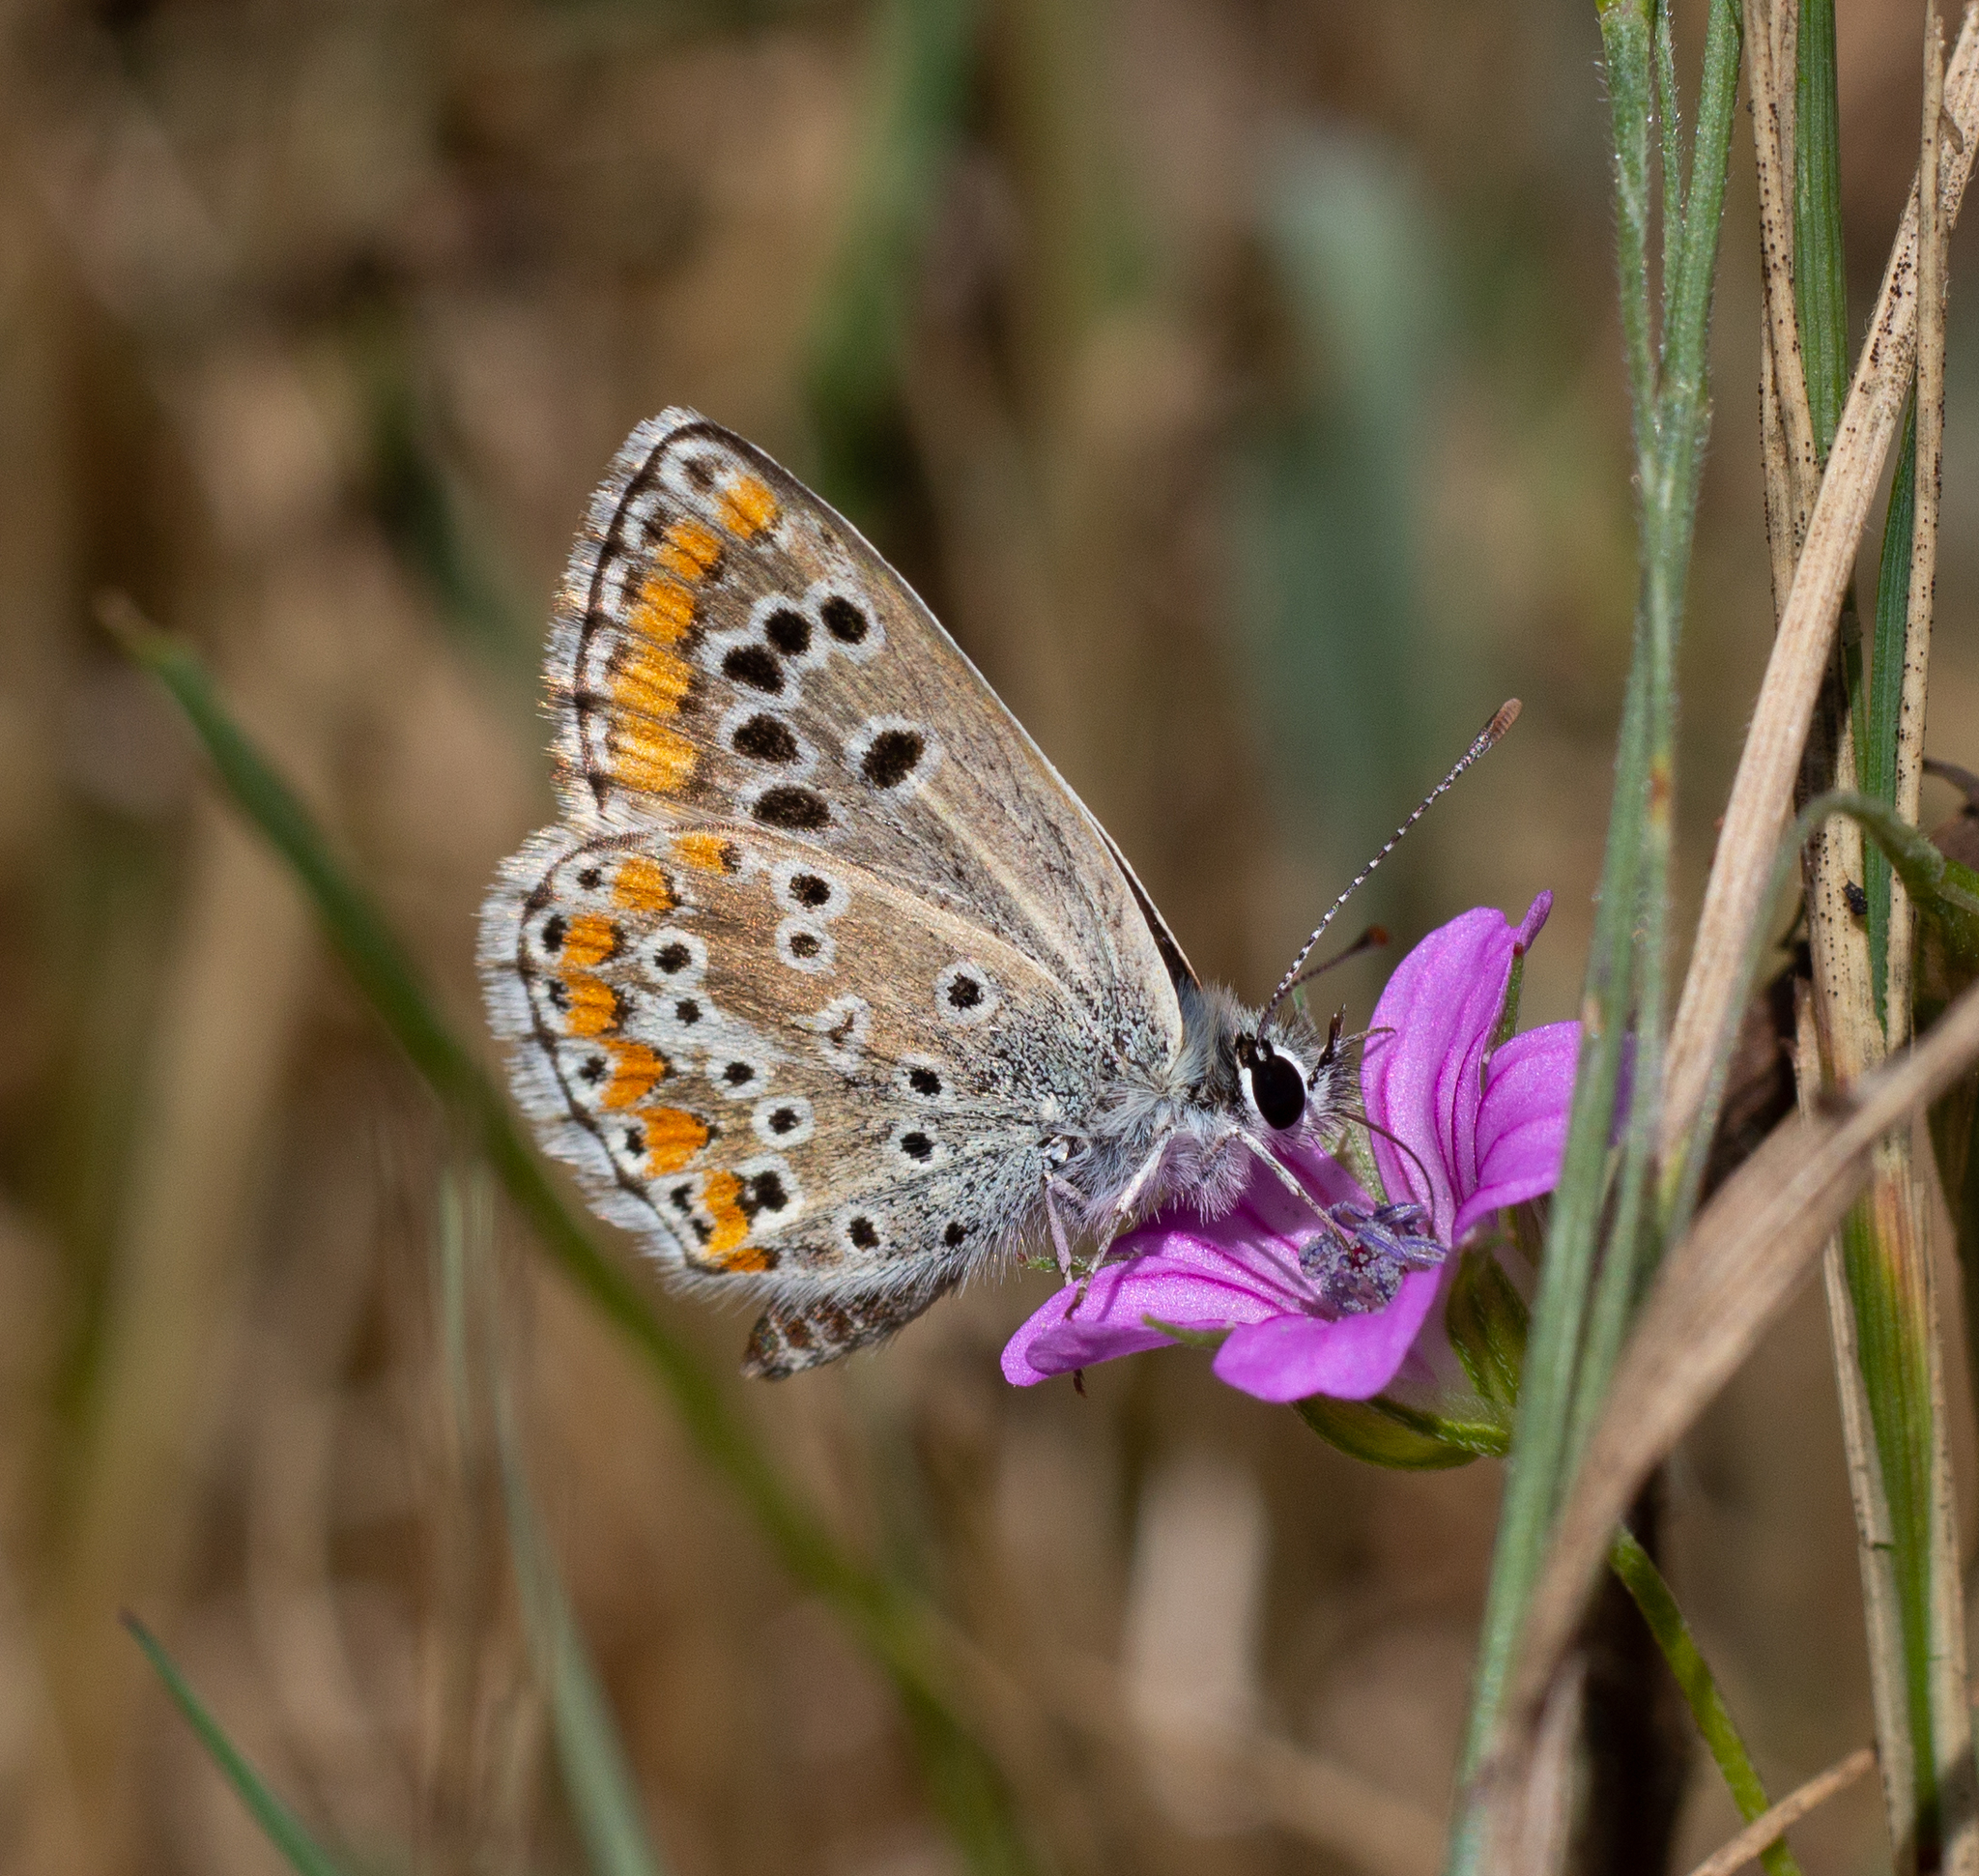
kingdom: Animalia
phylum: Arthropoda
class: Insecta
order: Lepidoptera
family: Lycaenidae
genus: Aricia
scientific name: Aricia cramera
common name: Eschscholtz´s brown  argus
